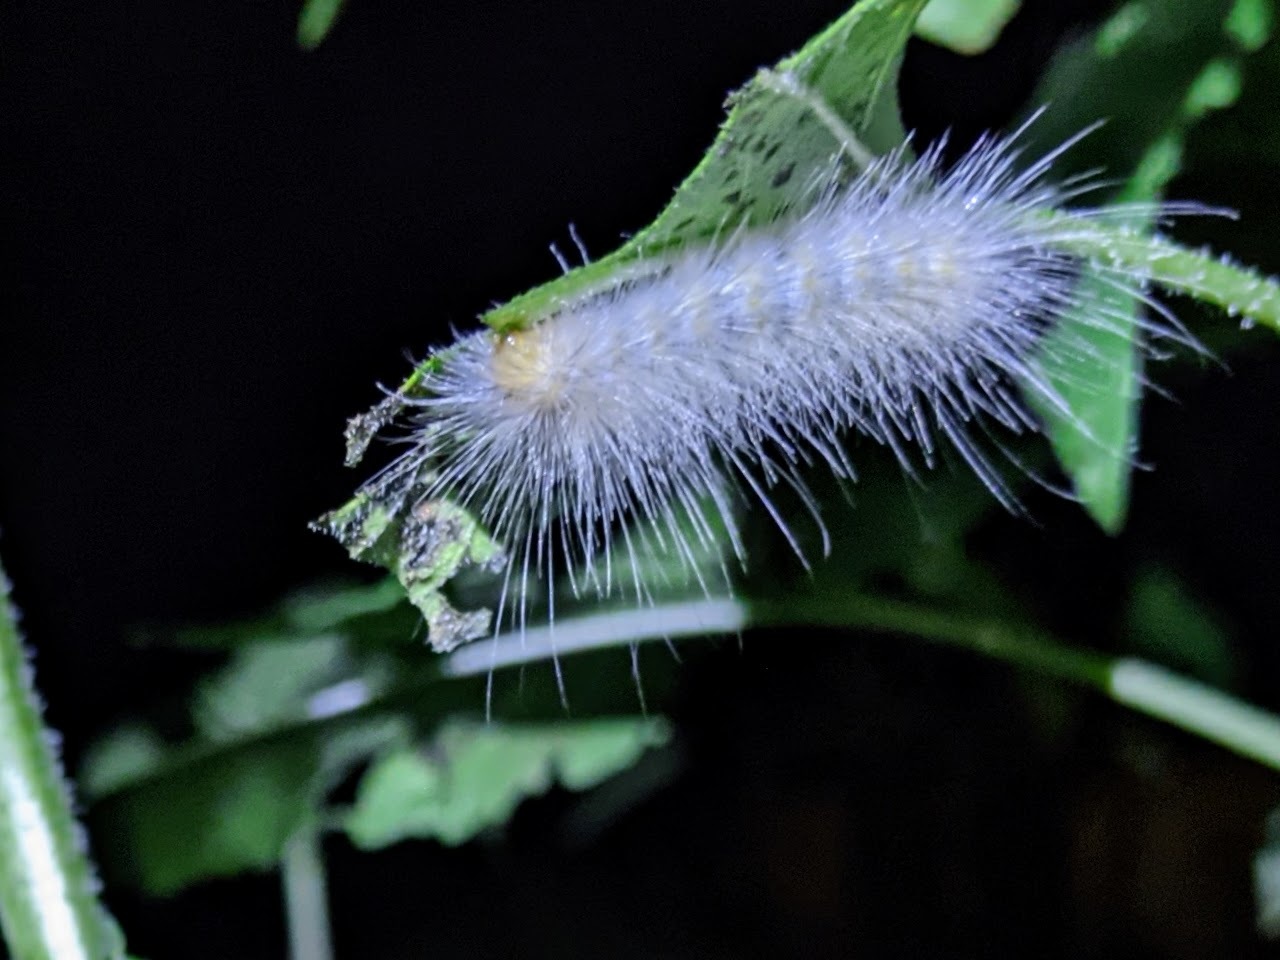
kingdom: Animalia
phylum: Arthropoda
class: Insecta
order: Lepidoptera
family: Erebidae
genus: Spilosoma
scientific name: Spilosoma virginica
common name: Virginia tiger moth
